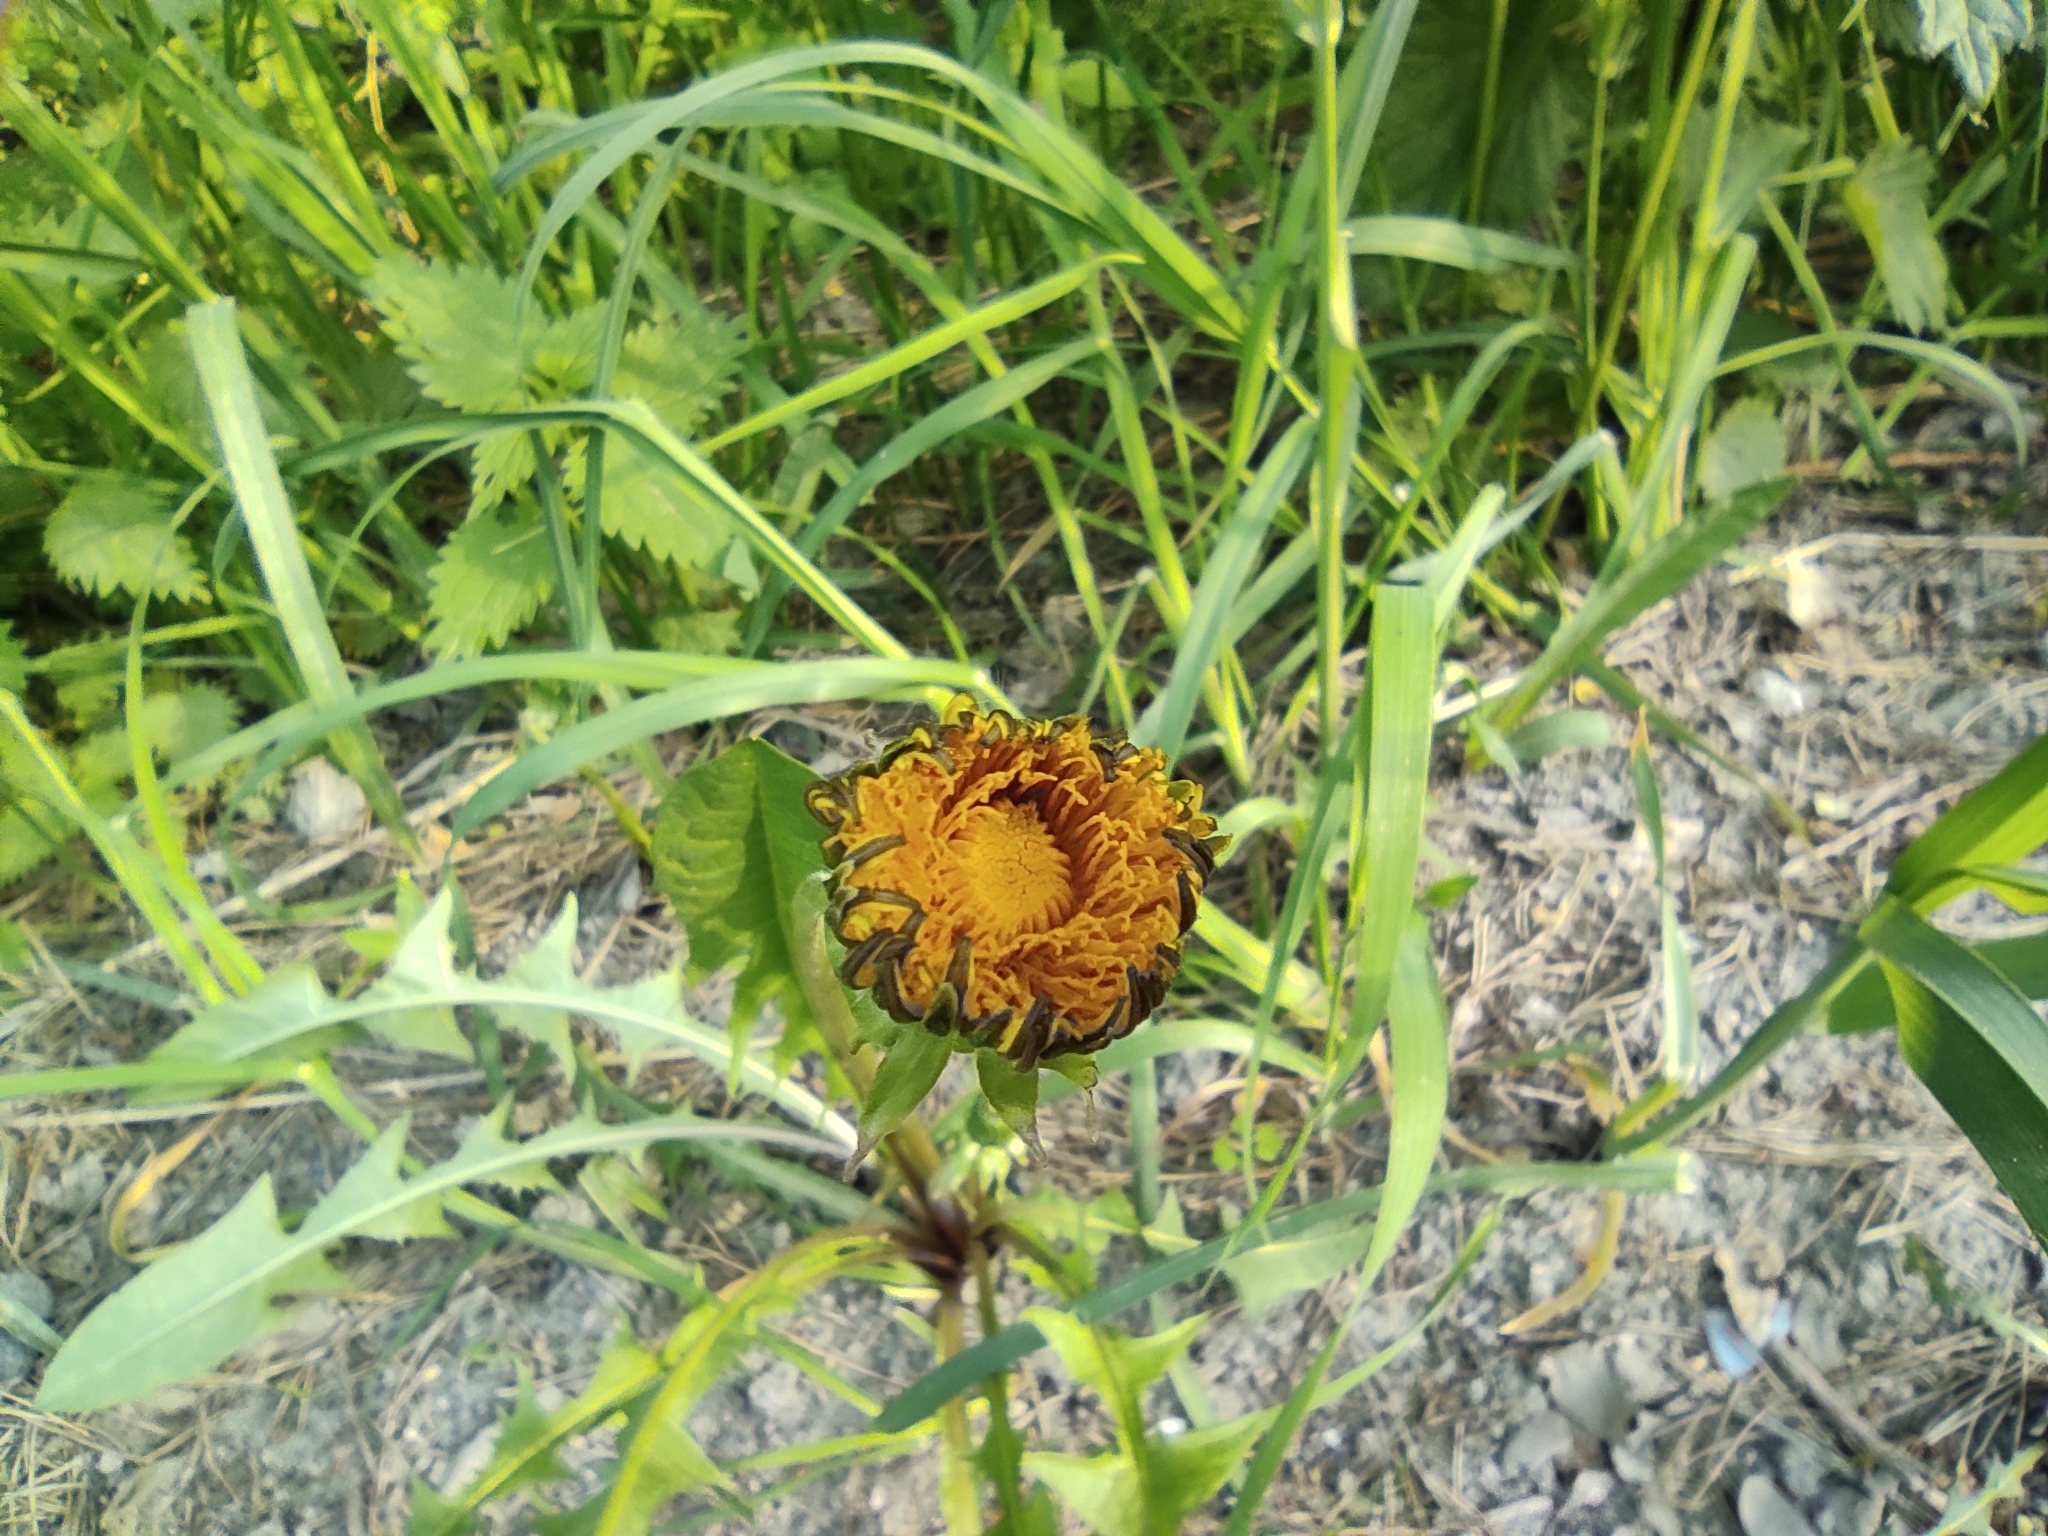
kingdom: Plantae
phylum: Tracheophyta
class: Magnoliopsida
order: Asterales
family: Asteraceae
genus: Taraxacum
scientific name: Taraxacum officinale
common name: Common dandelion
